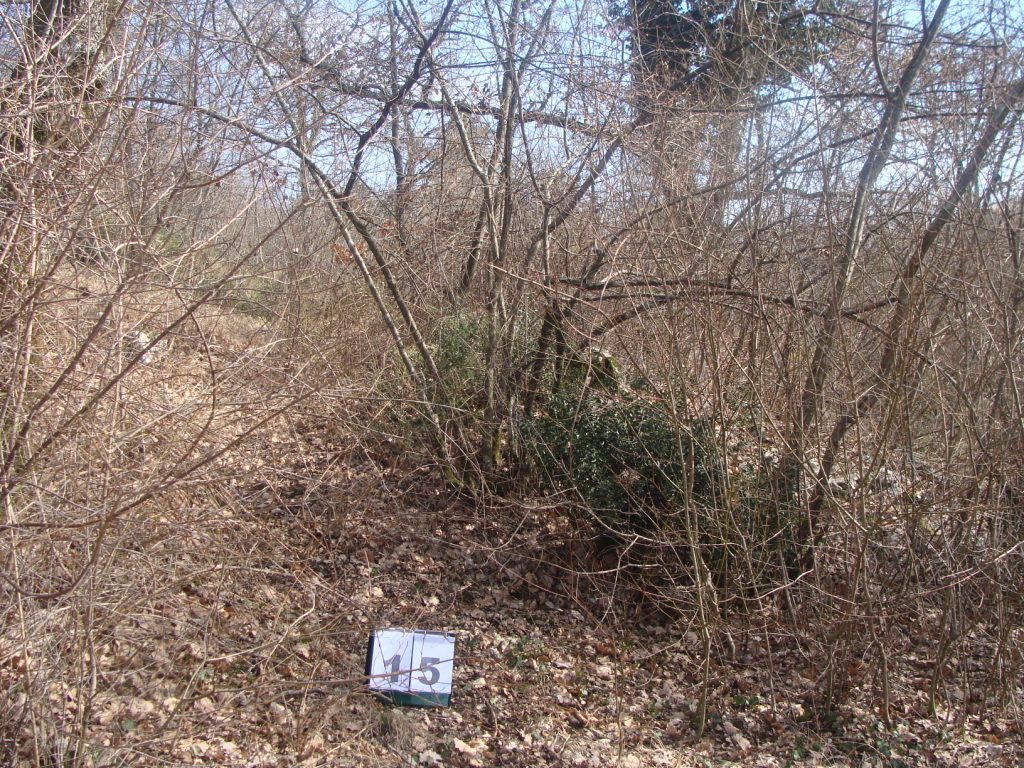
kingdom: Plantae
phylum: Tracheophyta
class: Magnoliopsida
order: Cornales
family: Cornaceae
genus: Cornus
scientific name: Cornus mas
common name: Cornelian-cherry
